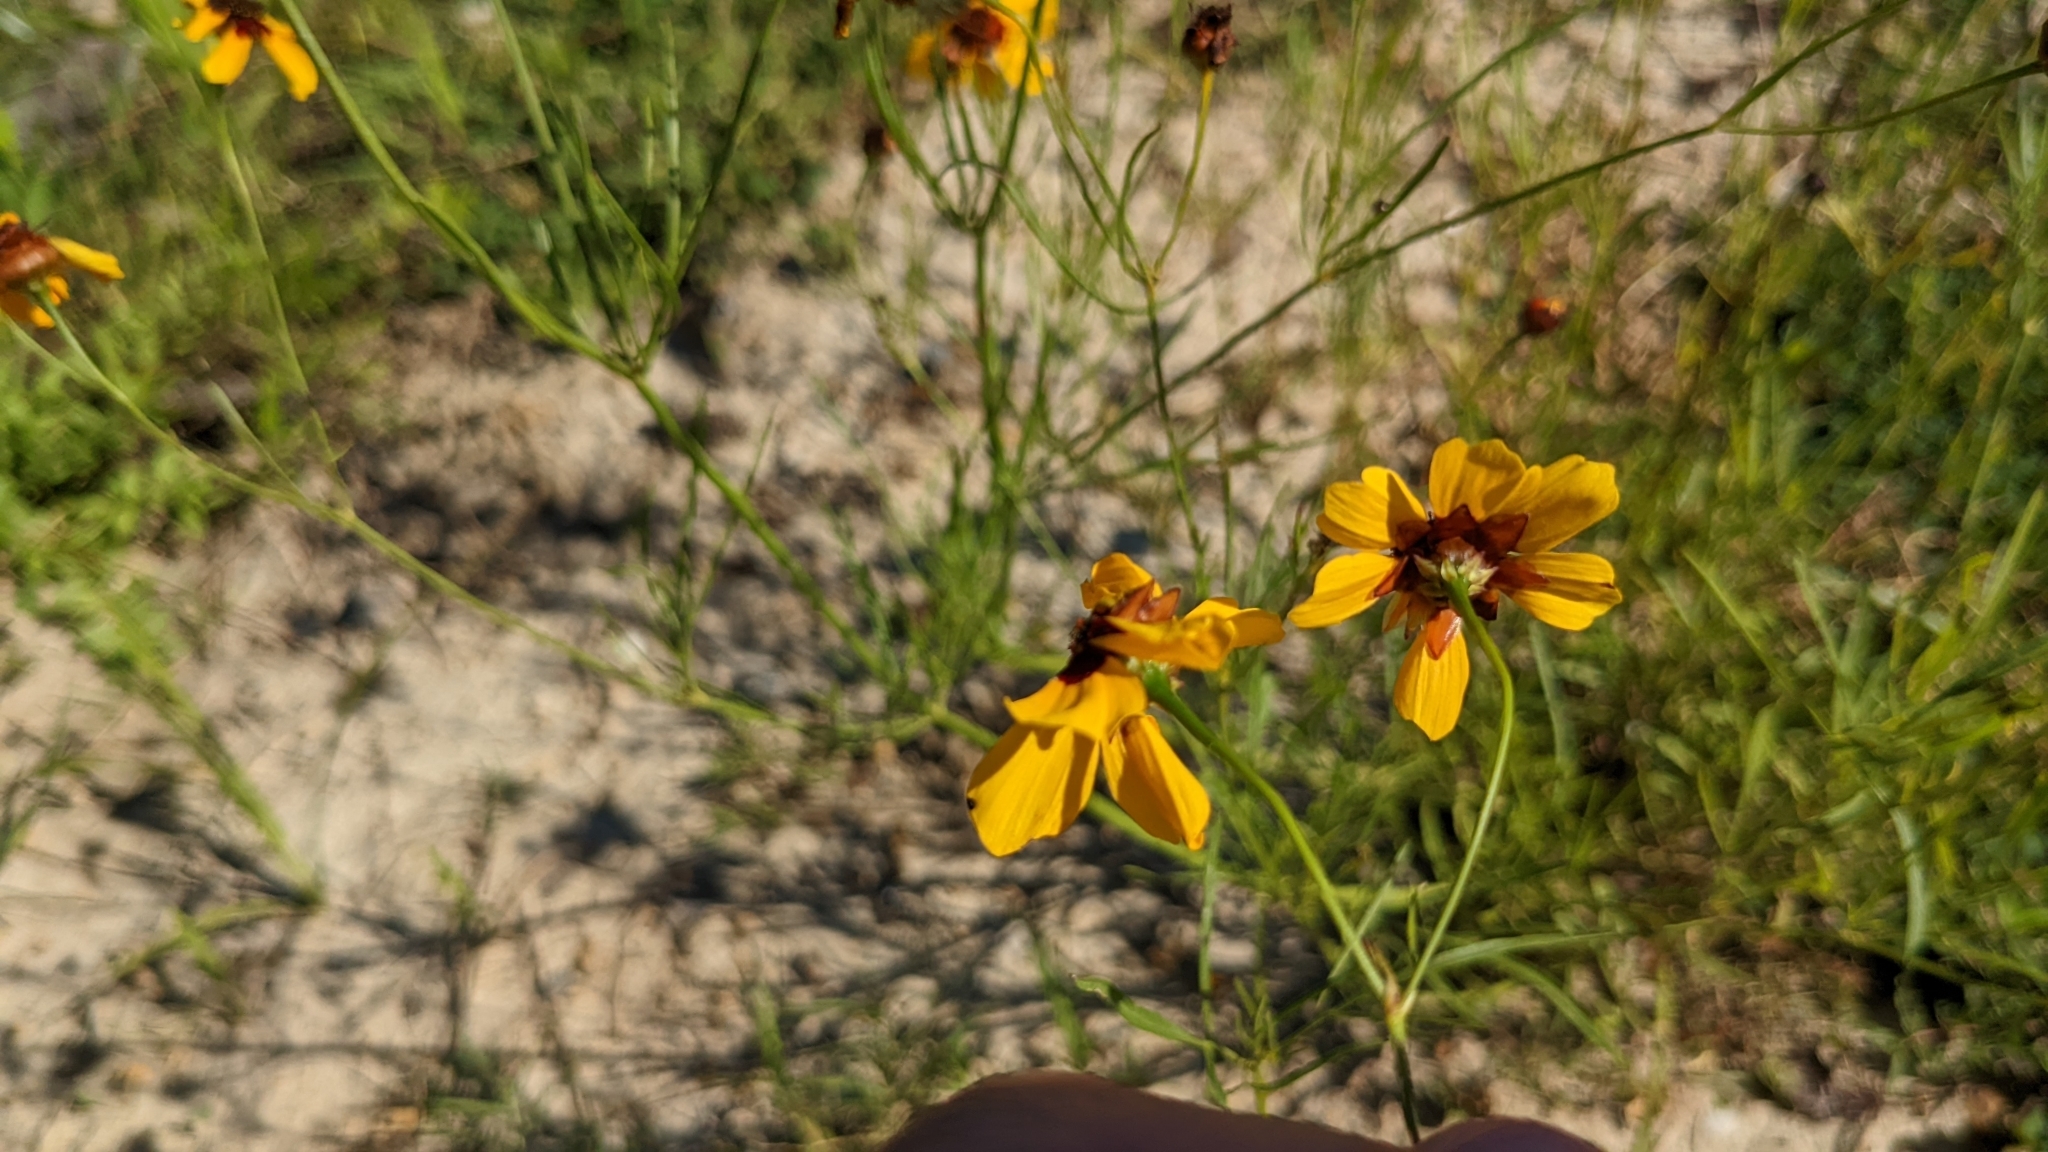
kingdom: Plantae
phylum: Tracheophyta
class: Magnoliopsida
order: Asterales
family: Asteraceae
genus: Coreopsis
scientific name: Coreopsis tinctoria
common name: Garden tickseed
